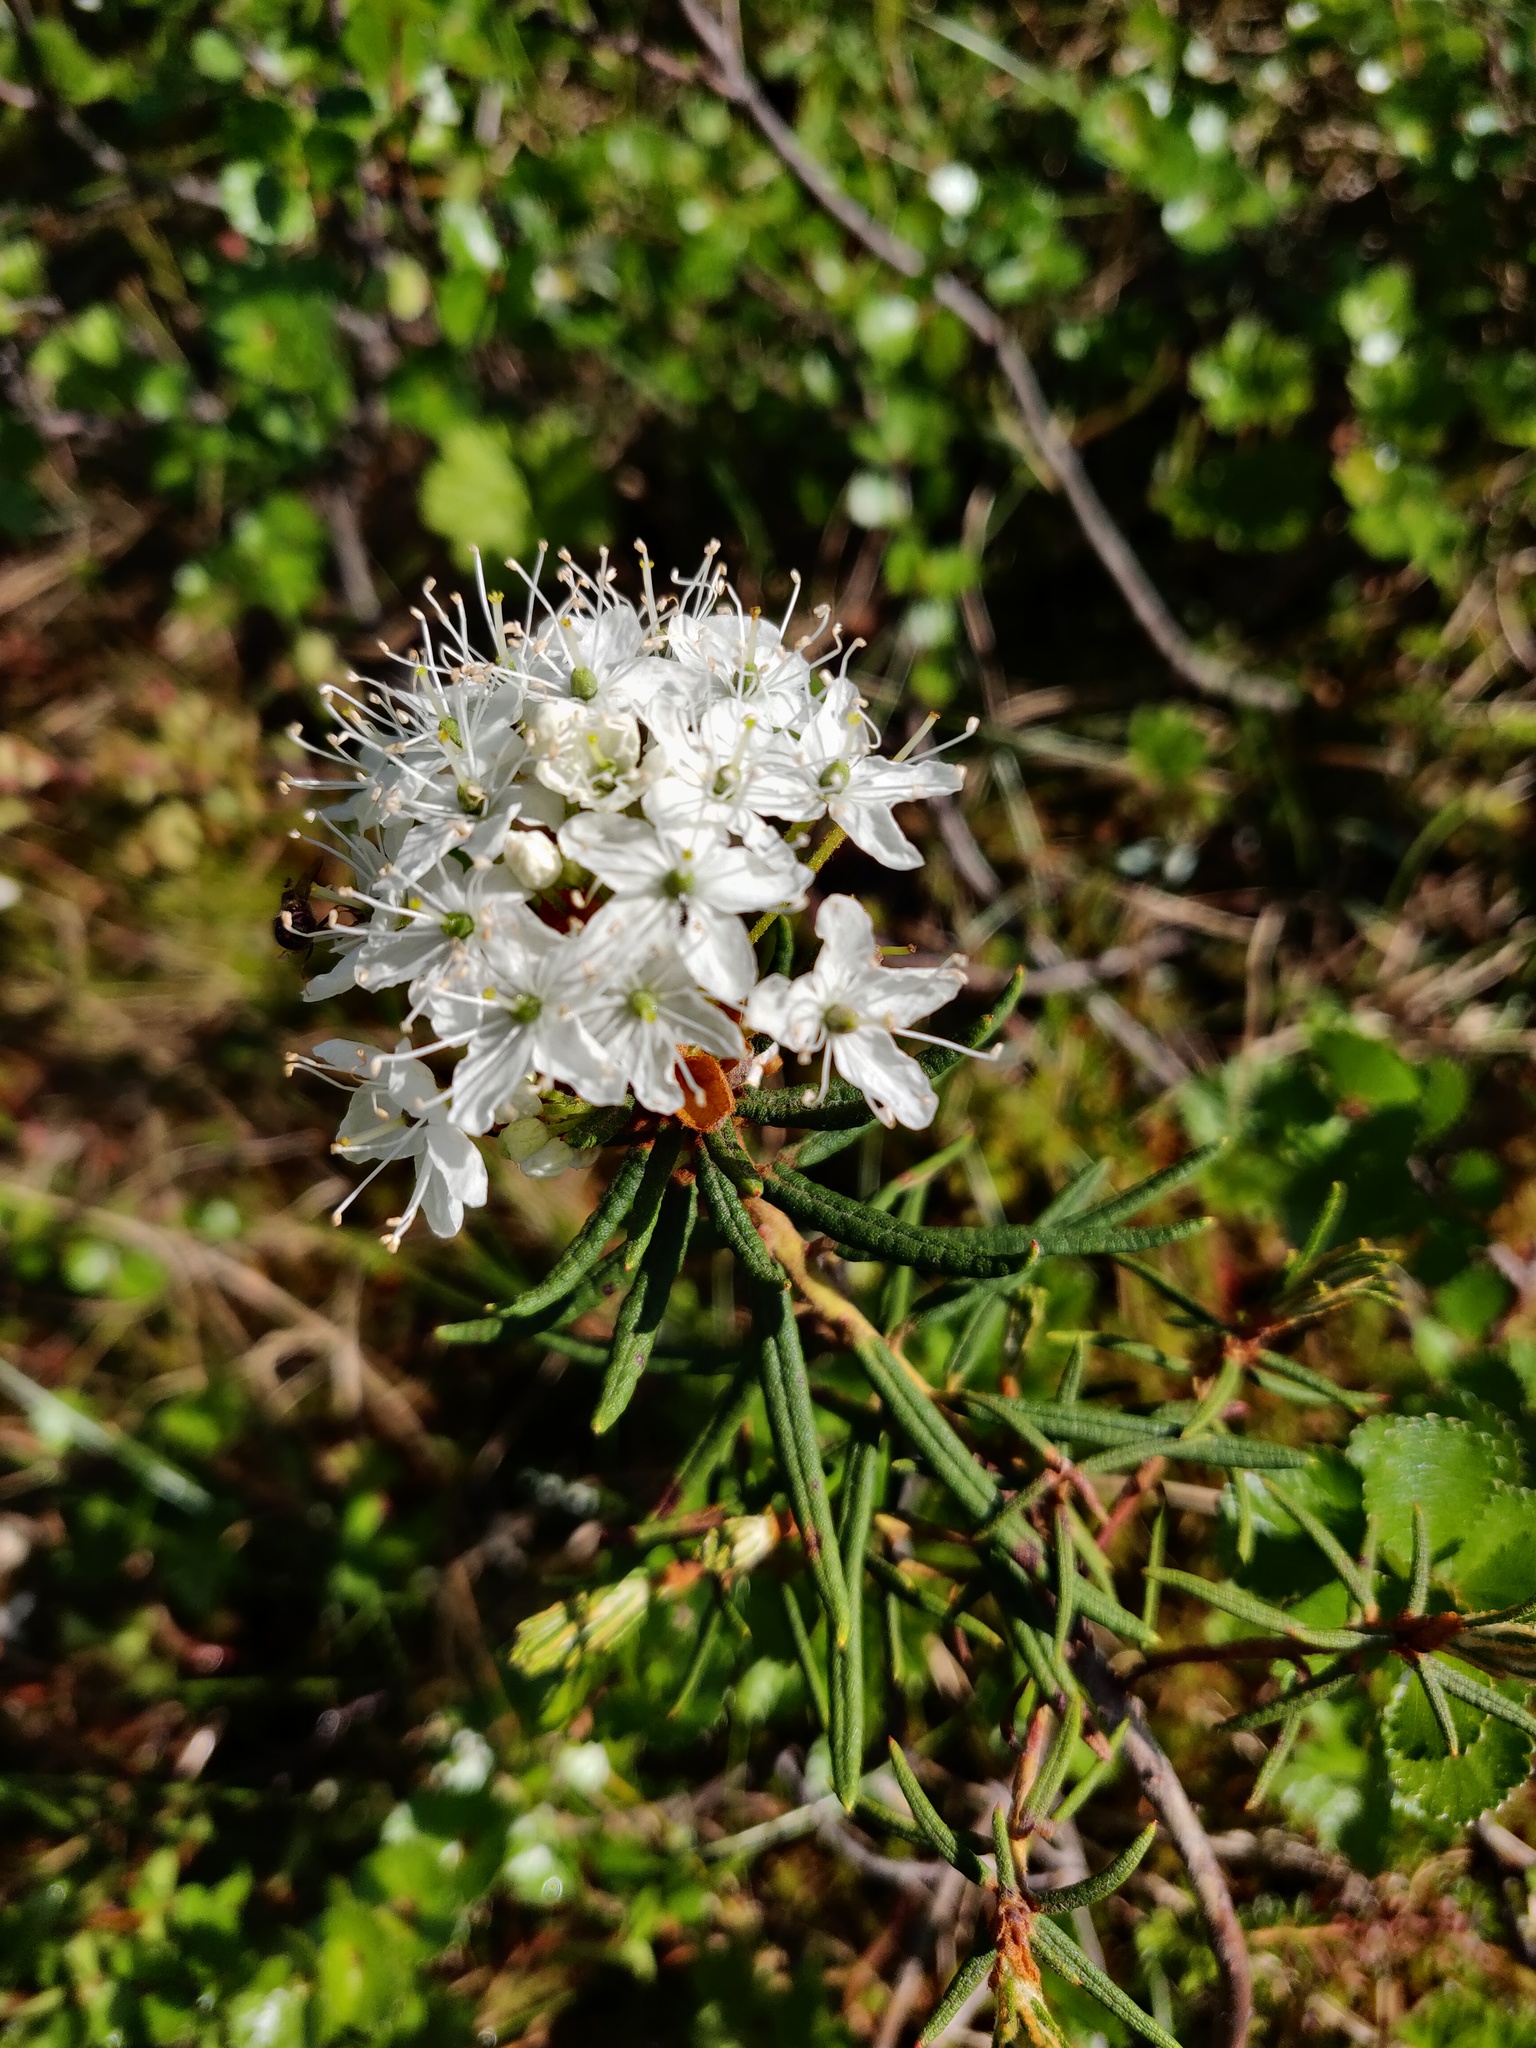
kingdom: Plantae
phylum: Tracheophyta
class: Magnoliopsida
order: Ericales
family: Ericaceae
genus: Rhododendron
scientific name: Rhododendron tomentosum
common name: Marsh labrador tea
